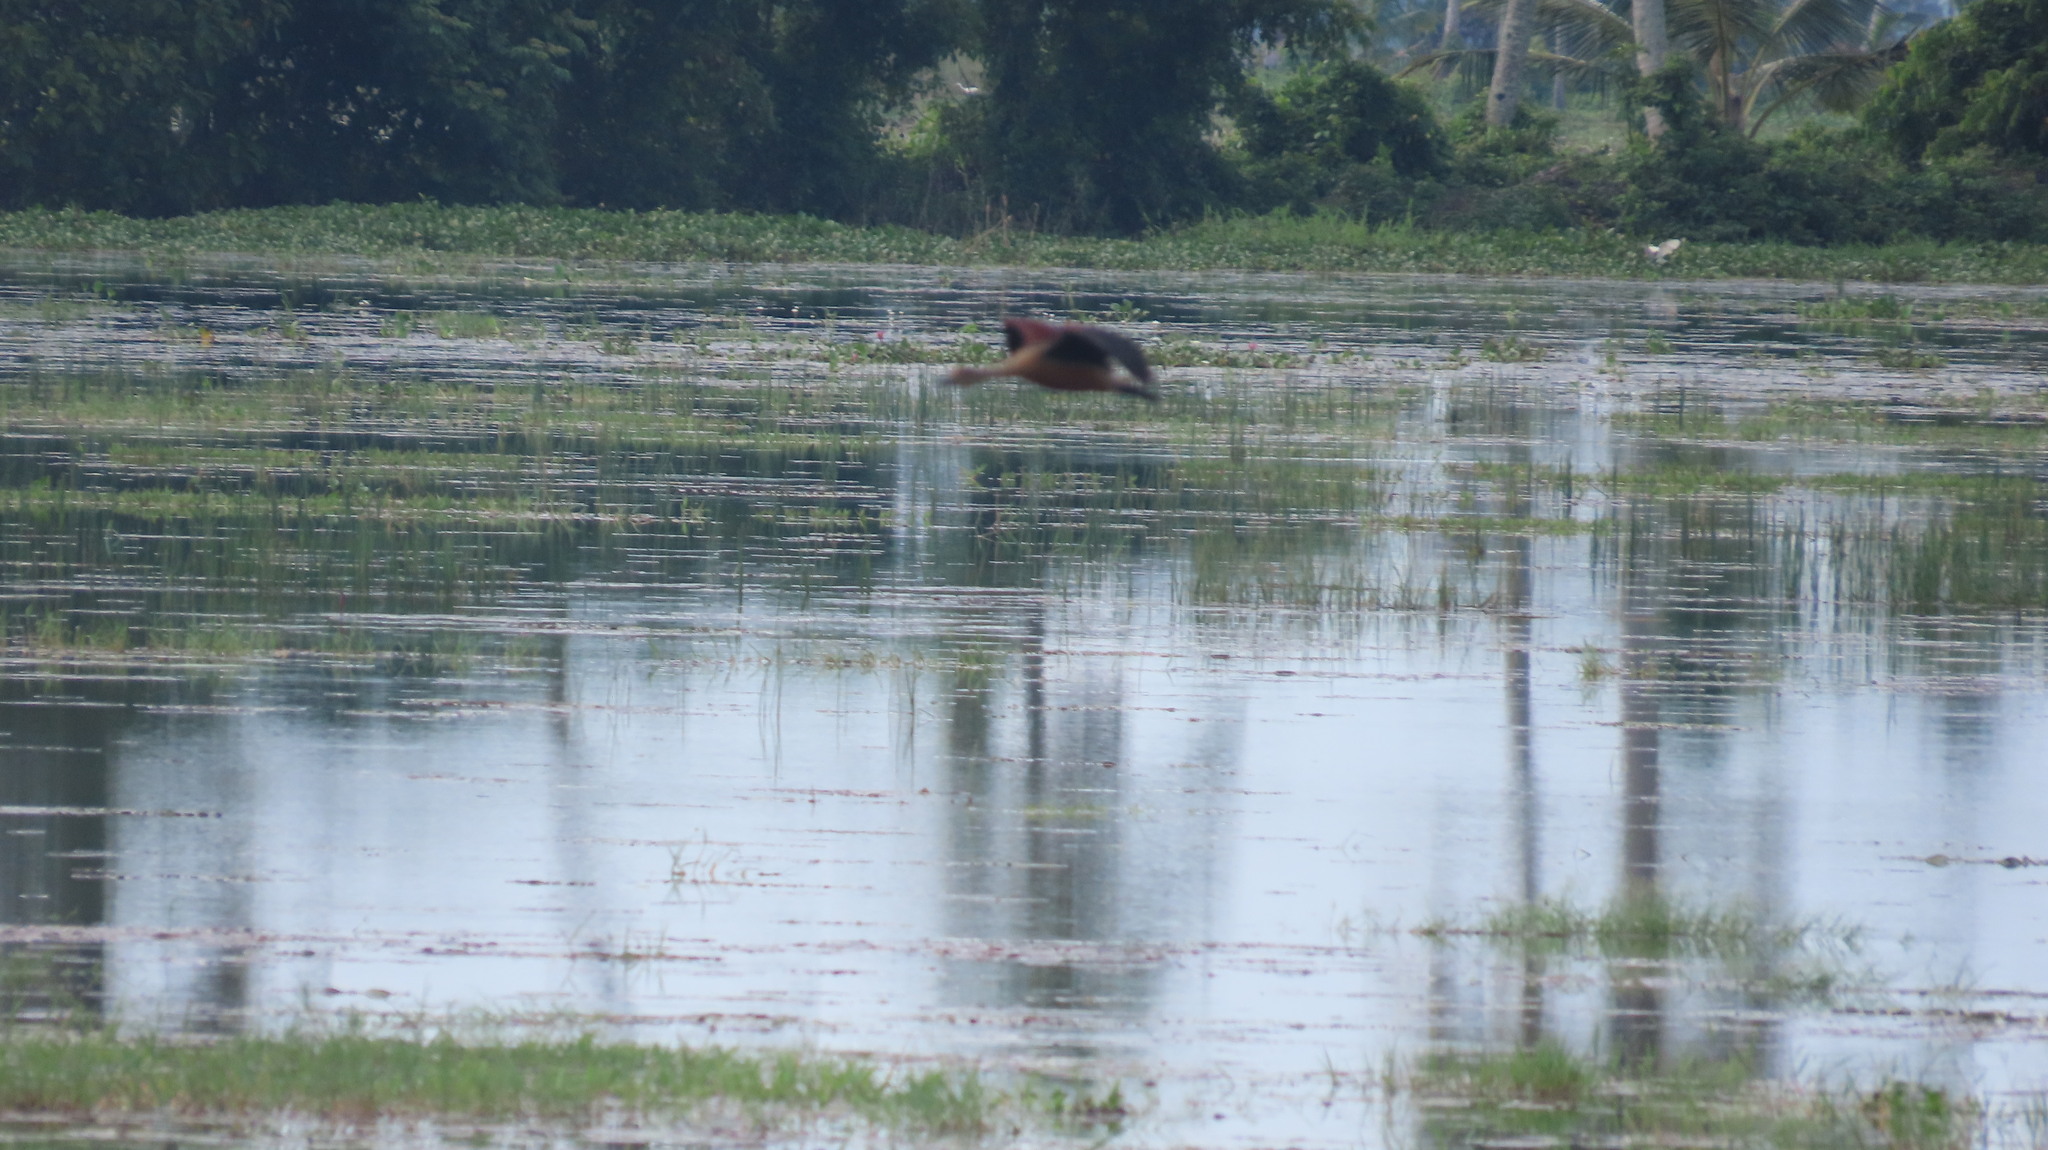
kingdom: Animalia
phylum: Chordata
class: Aves
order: Anseriformes
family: Anatidae
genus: Dendrocygna
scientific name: Dendrocygna javanica
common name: Lesser whistling-duck
